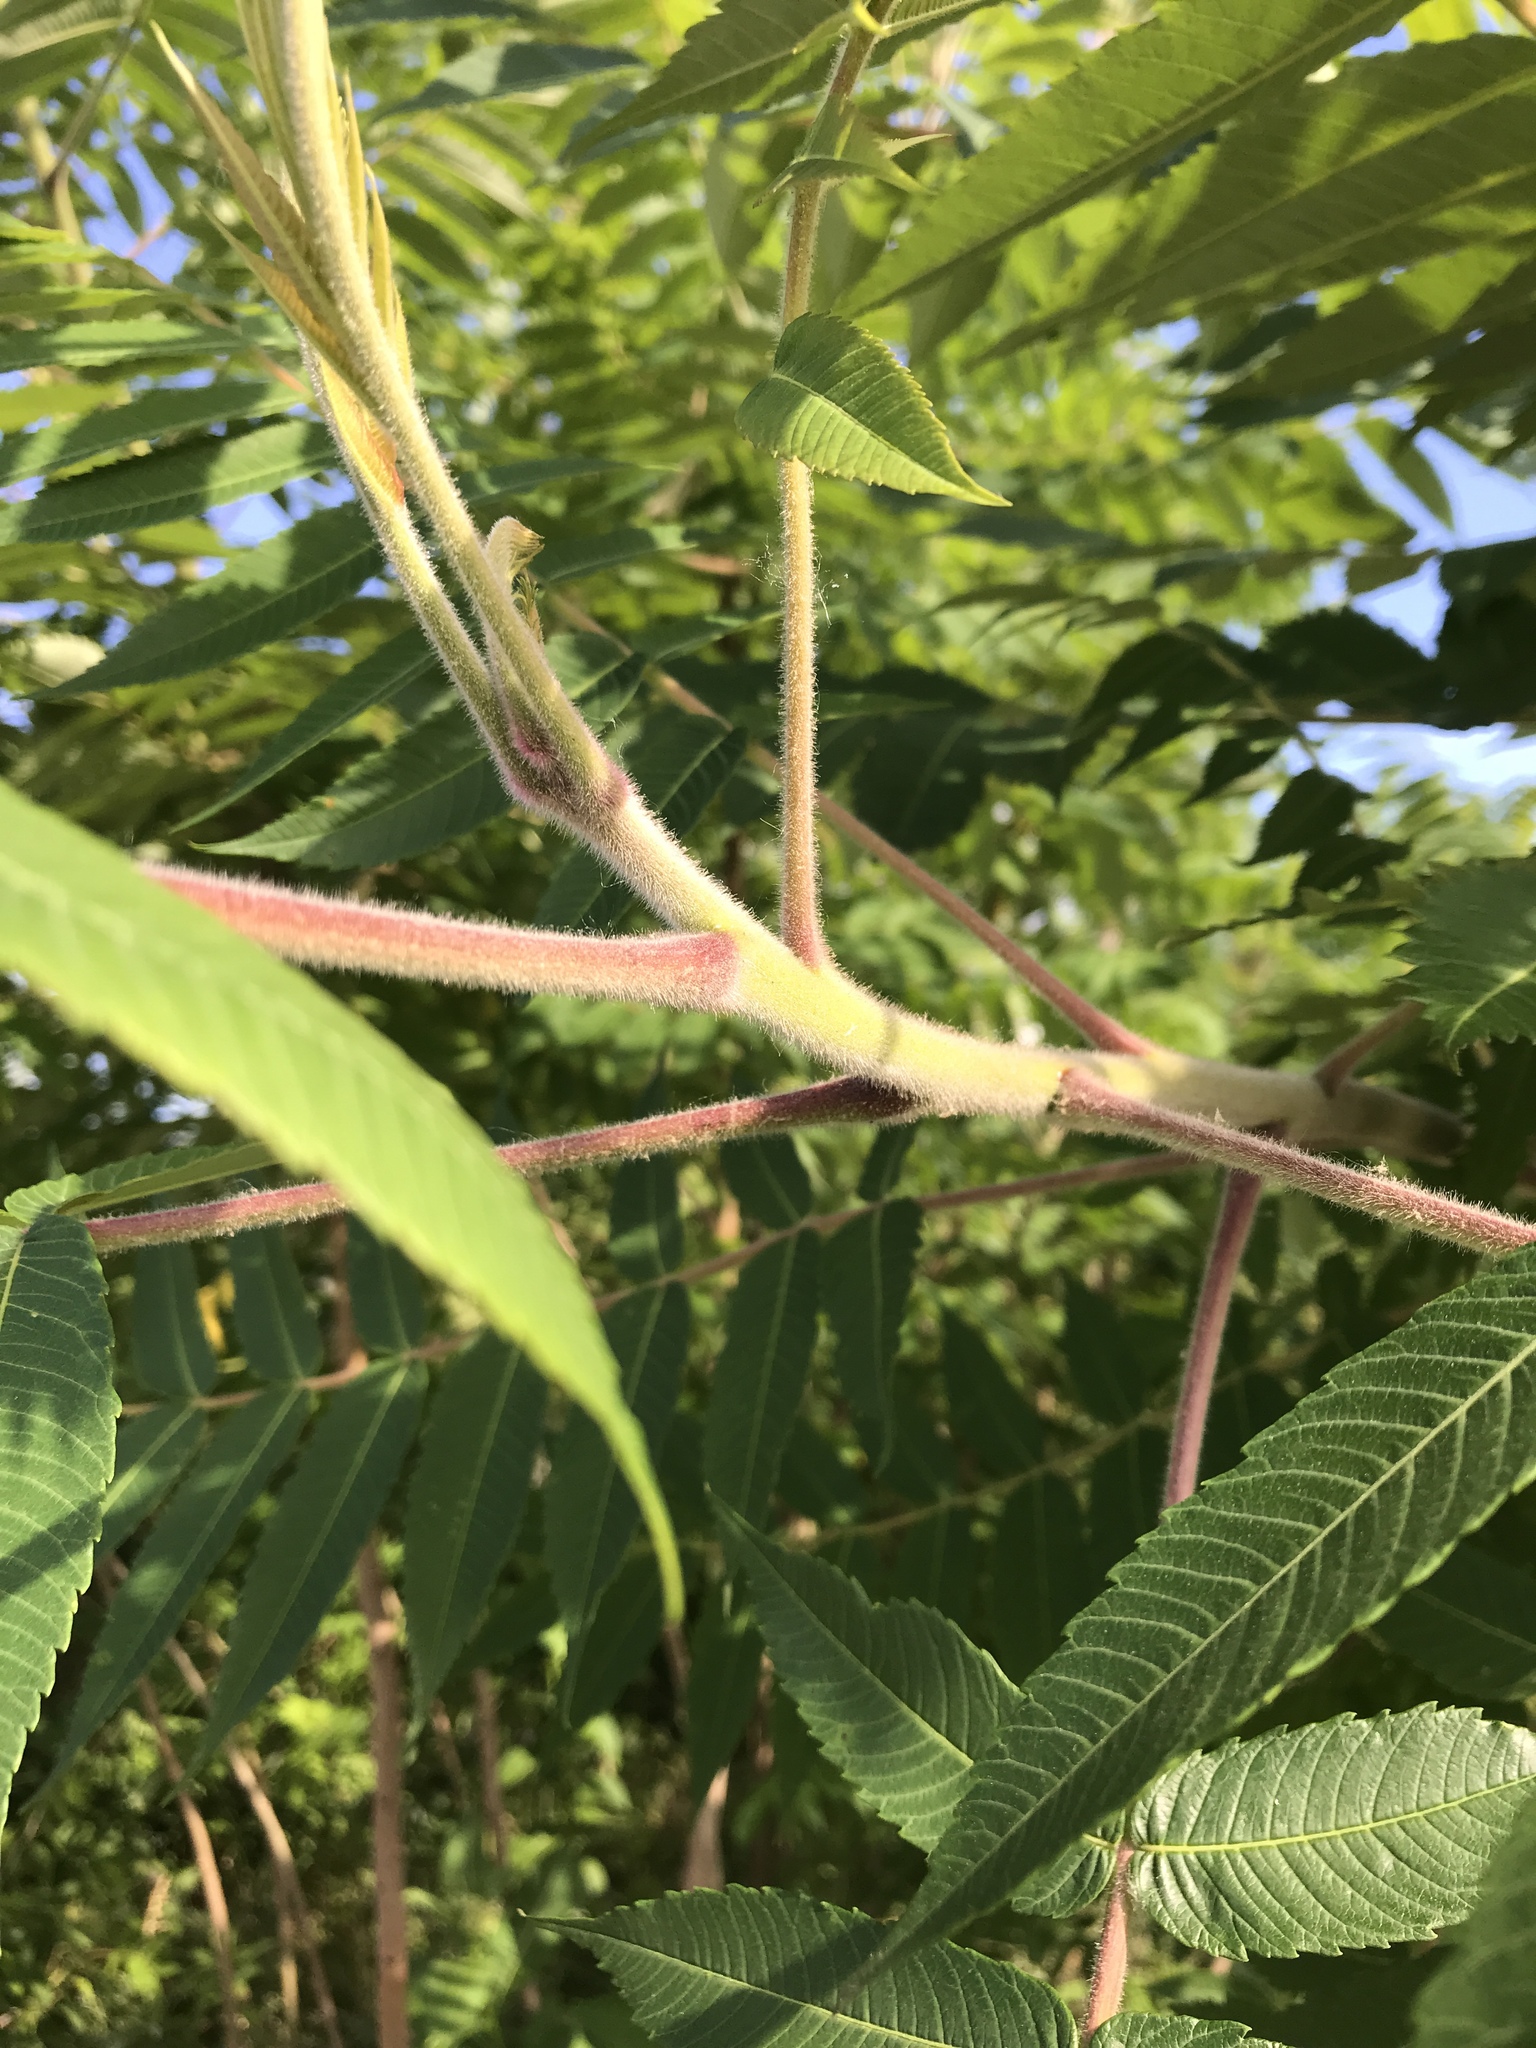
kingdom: Plantae
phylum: Tracheophyta
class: Magnoliopsida
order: Sapindales
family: Anacardiaceae
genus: Rhus
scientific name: Rhus typhina
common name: Staghorn sumac
